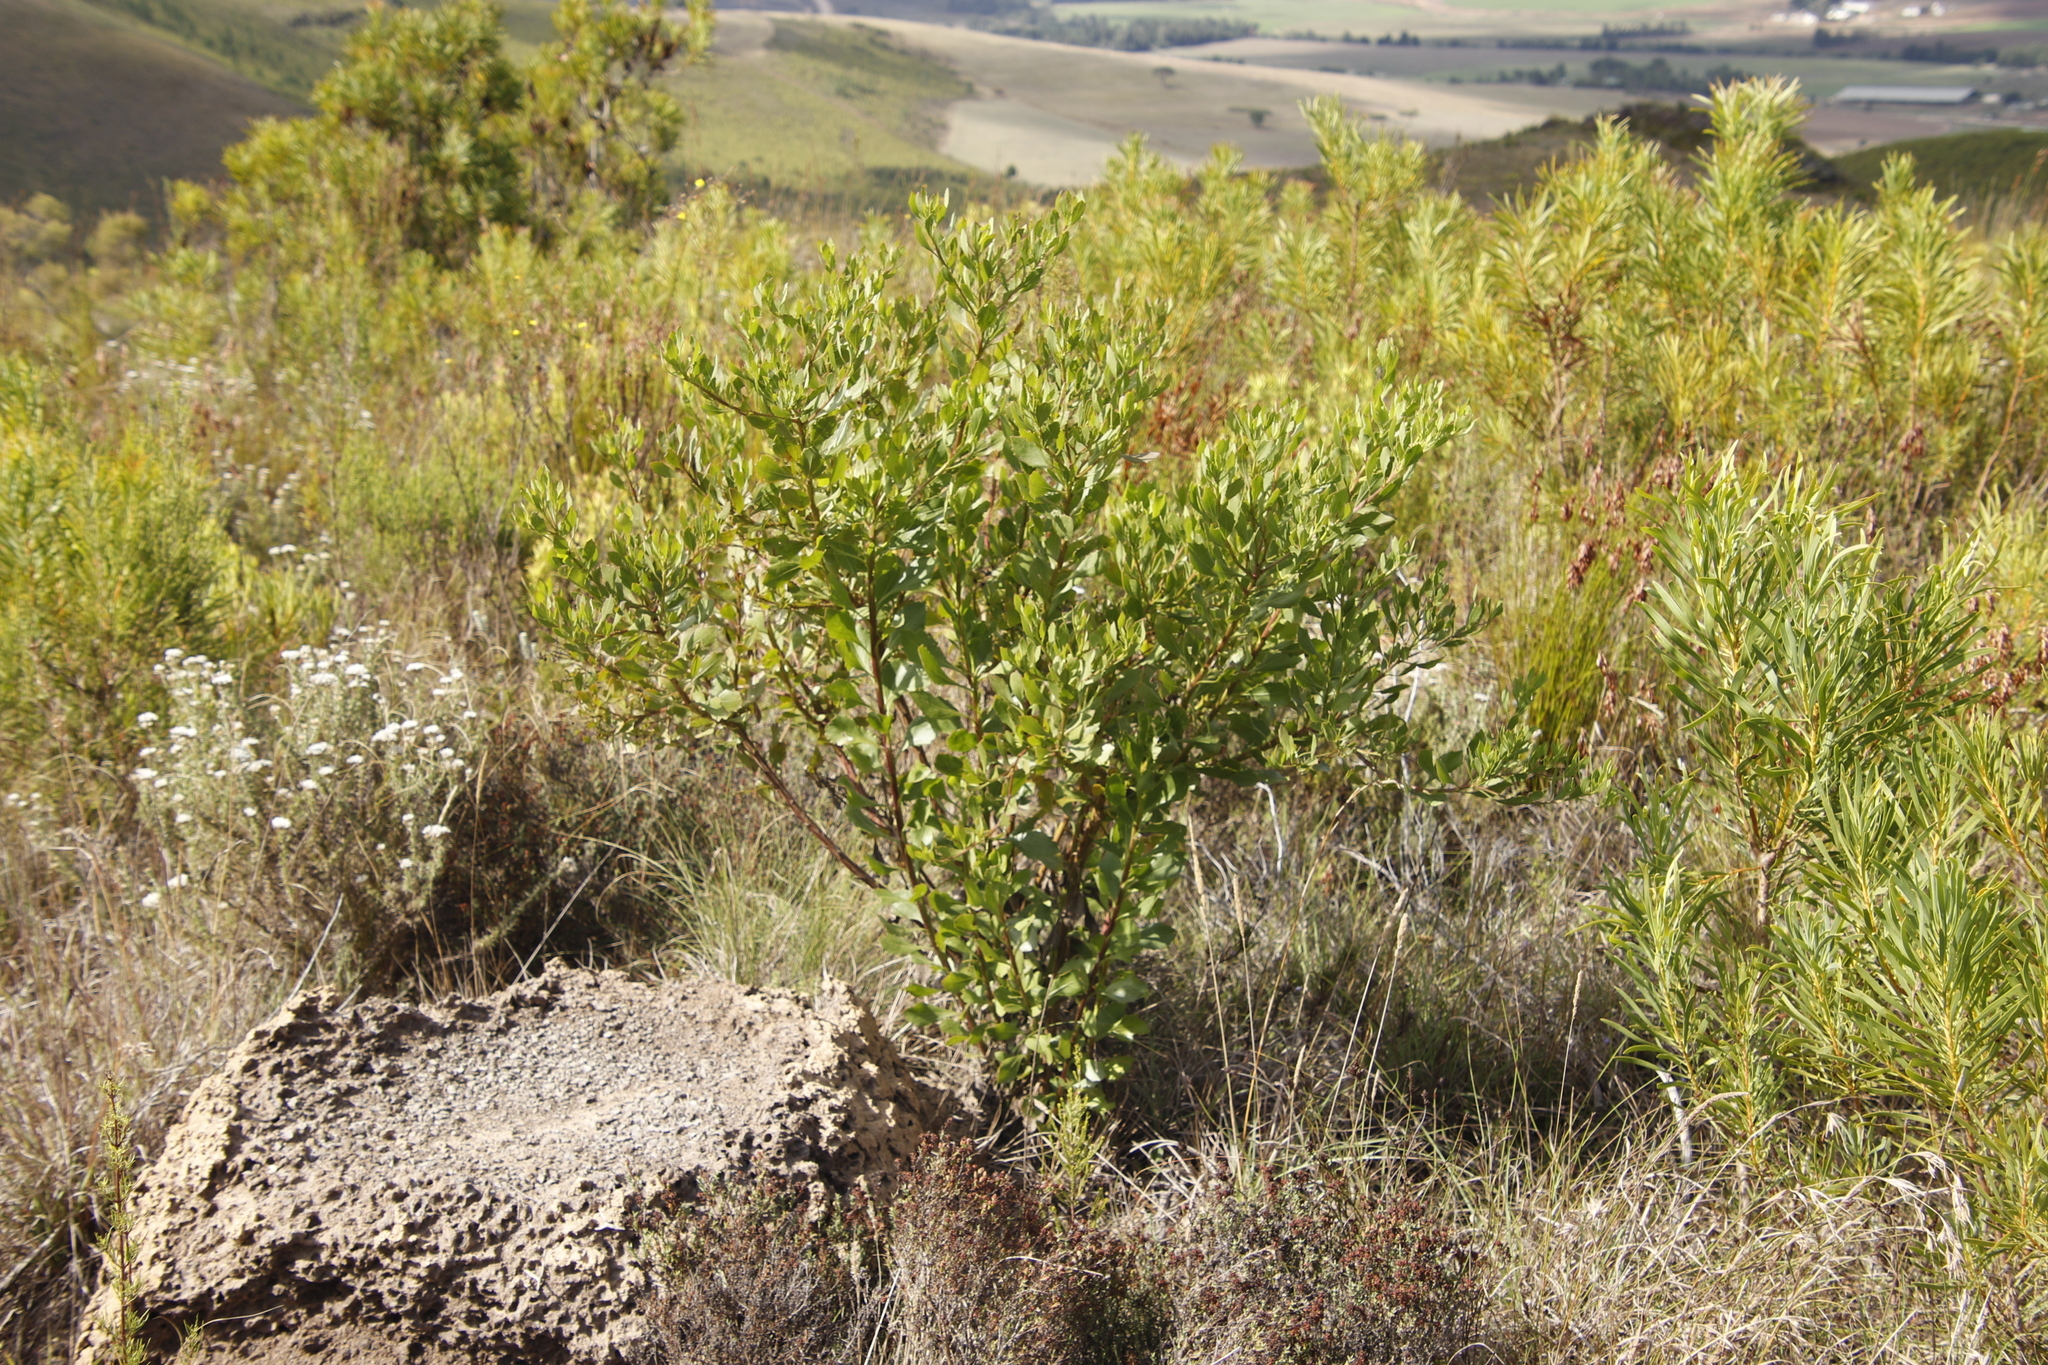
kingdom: Plantae
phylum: Tracheophyta
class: Magnoliopsida
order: Asterales
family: Asteraceae
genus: Osteospermum
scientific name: Osteospermum moniliferum
